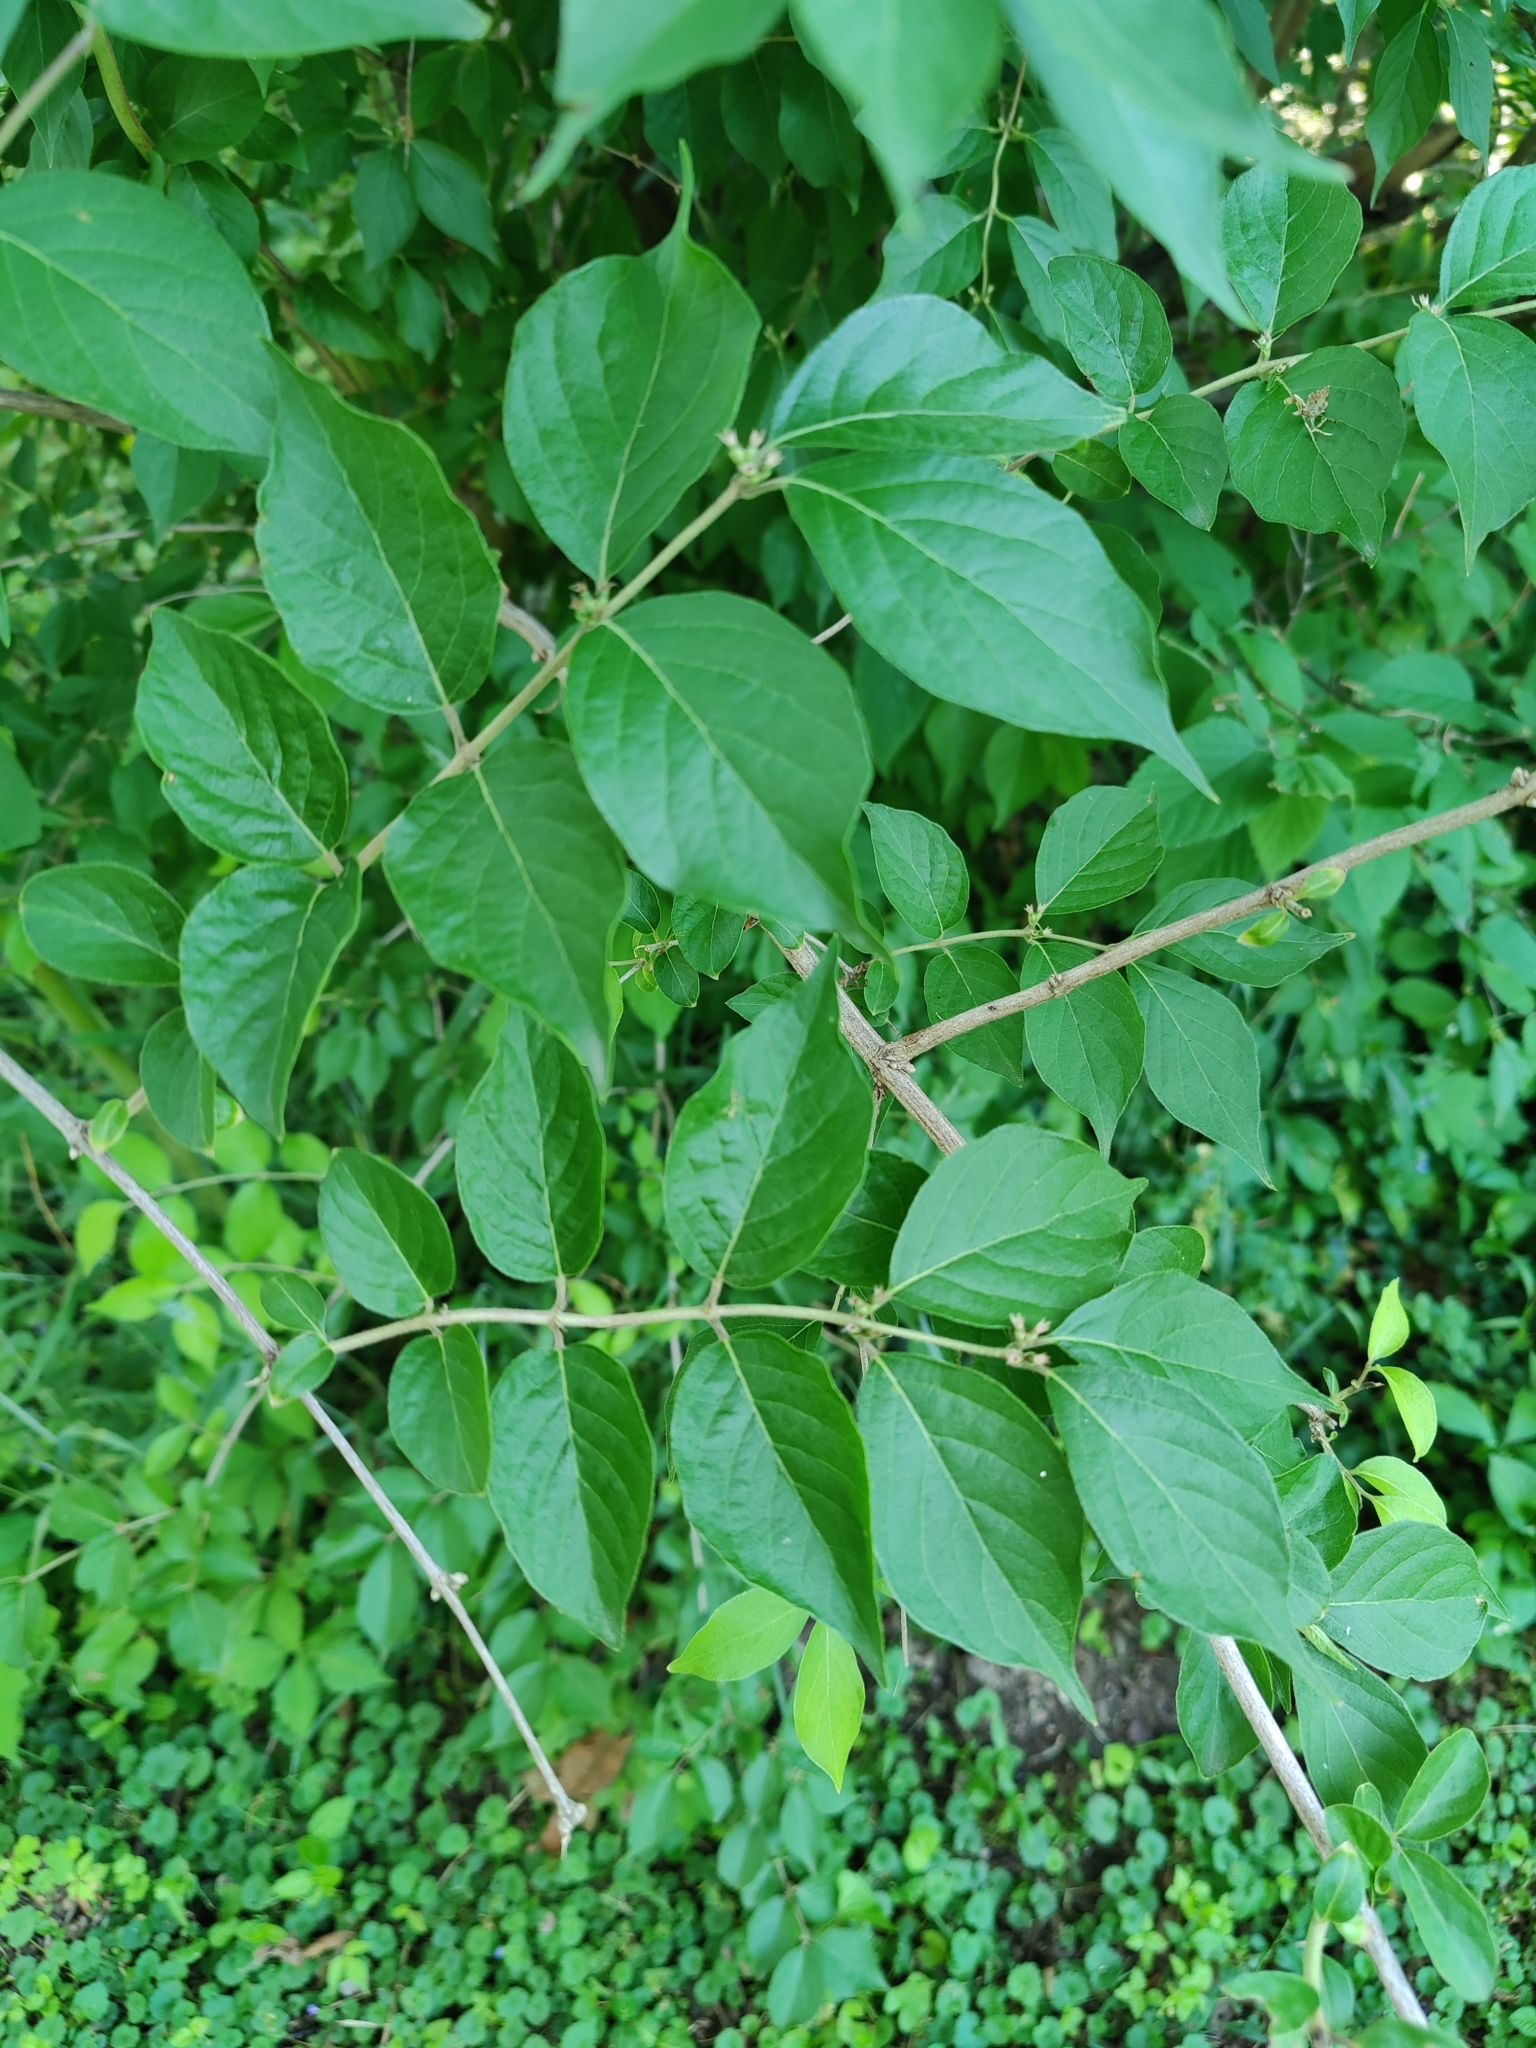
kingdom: Plantae
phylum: Tracheophyta
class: Magnoliopsida
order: Dipsacales
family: Caprifoliaceae
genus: Lonicera
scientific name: Lonicera maackii
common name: Amur honeysuckle
